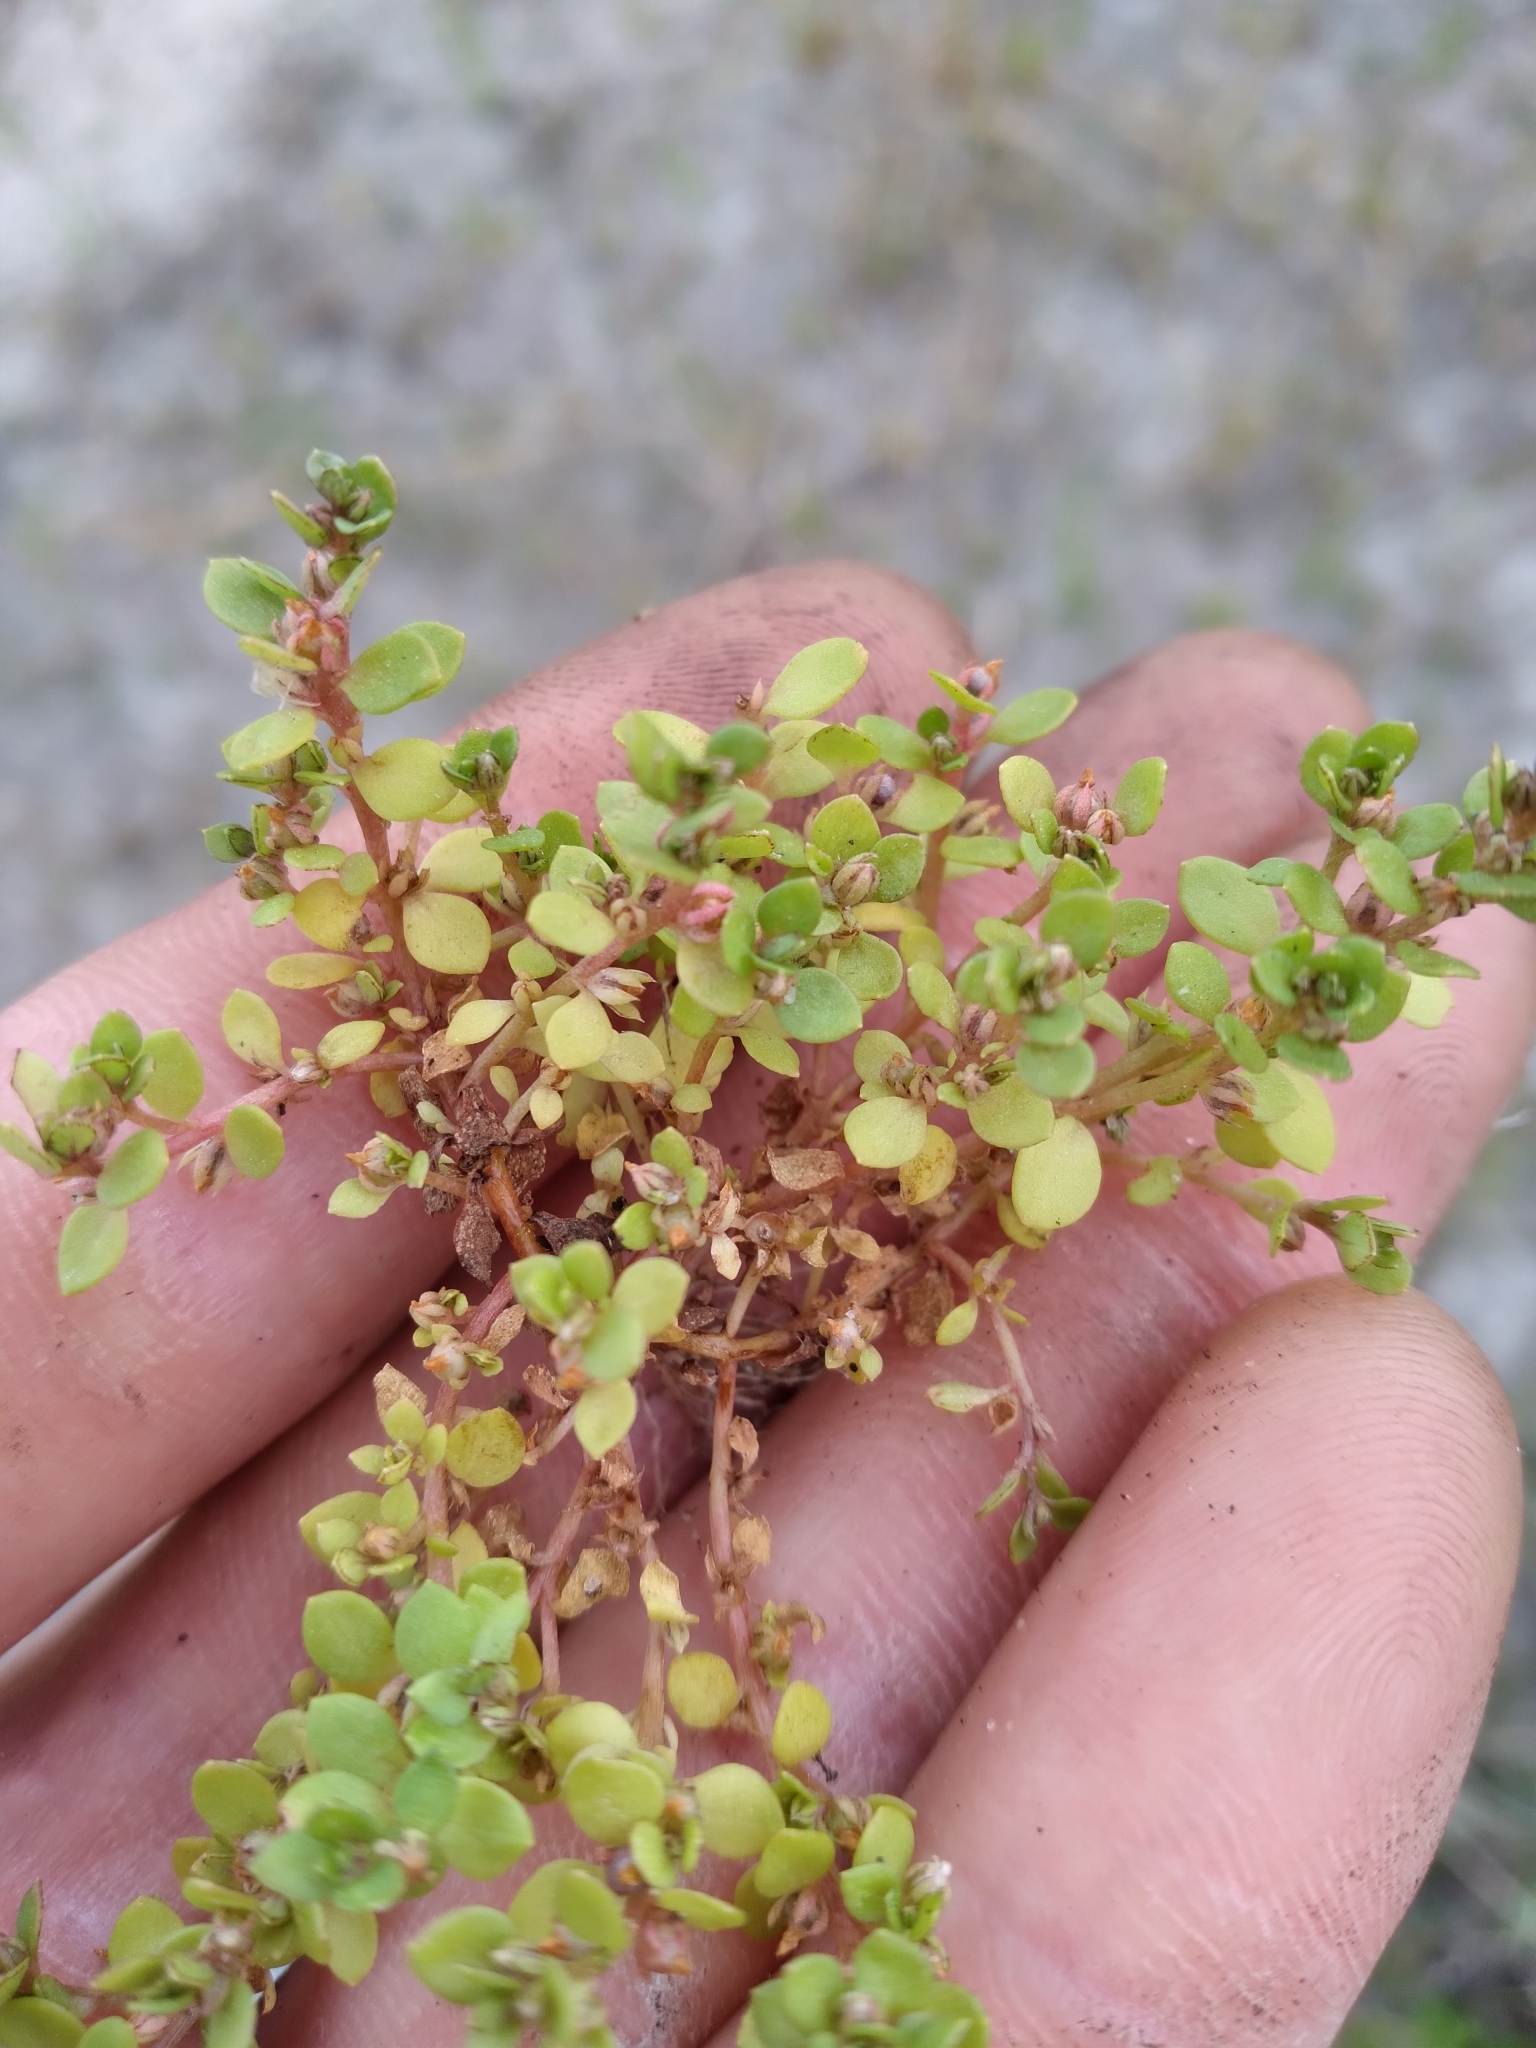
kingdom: Plantae
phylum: Tracheophyta
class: Magnoliopsida
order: Ericales
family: Primulaceae
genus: Lysimachia
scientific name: Lysimachia minima
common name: Chaffweed
